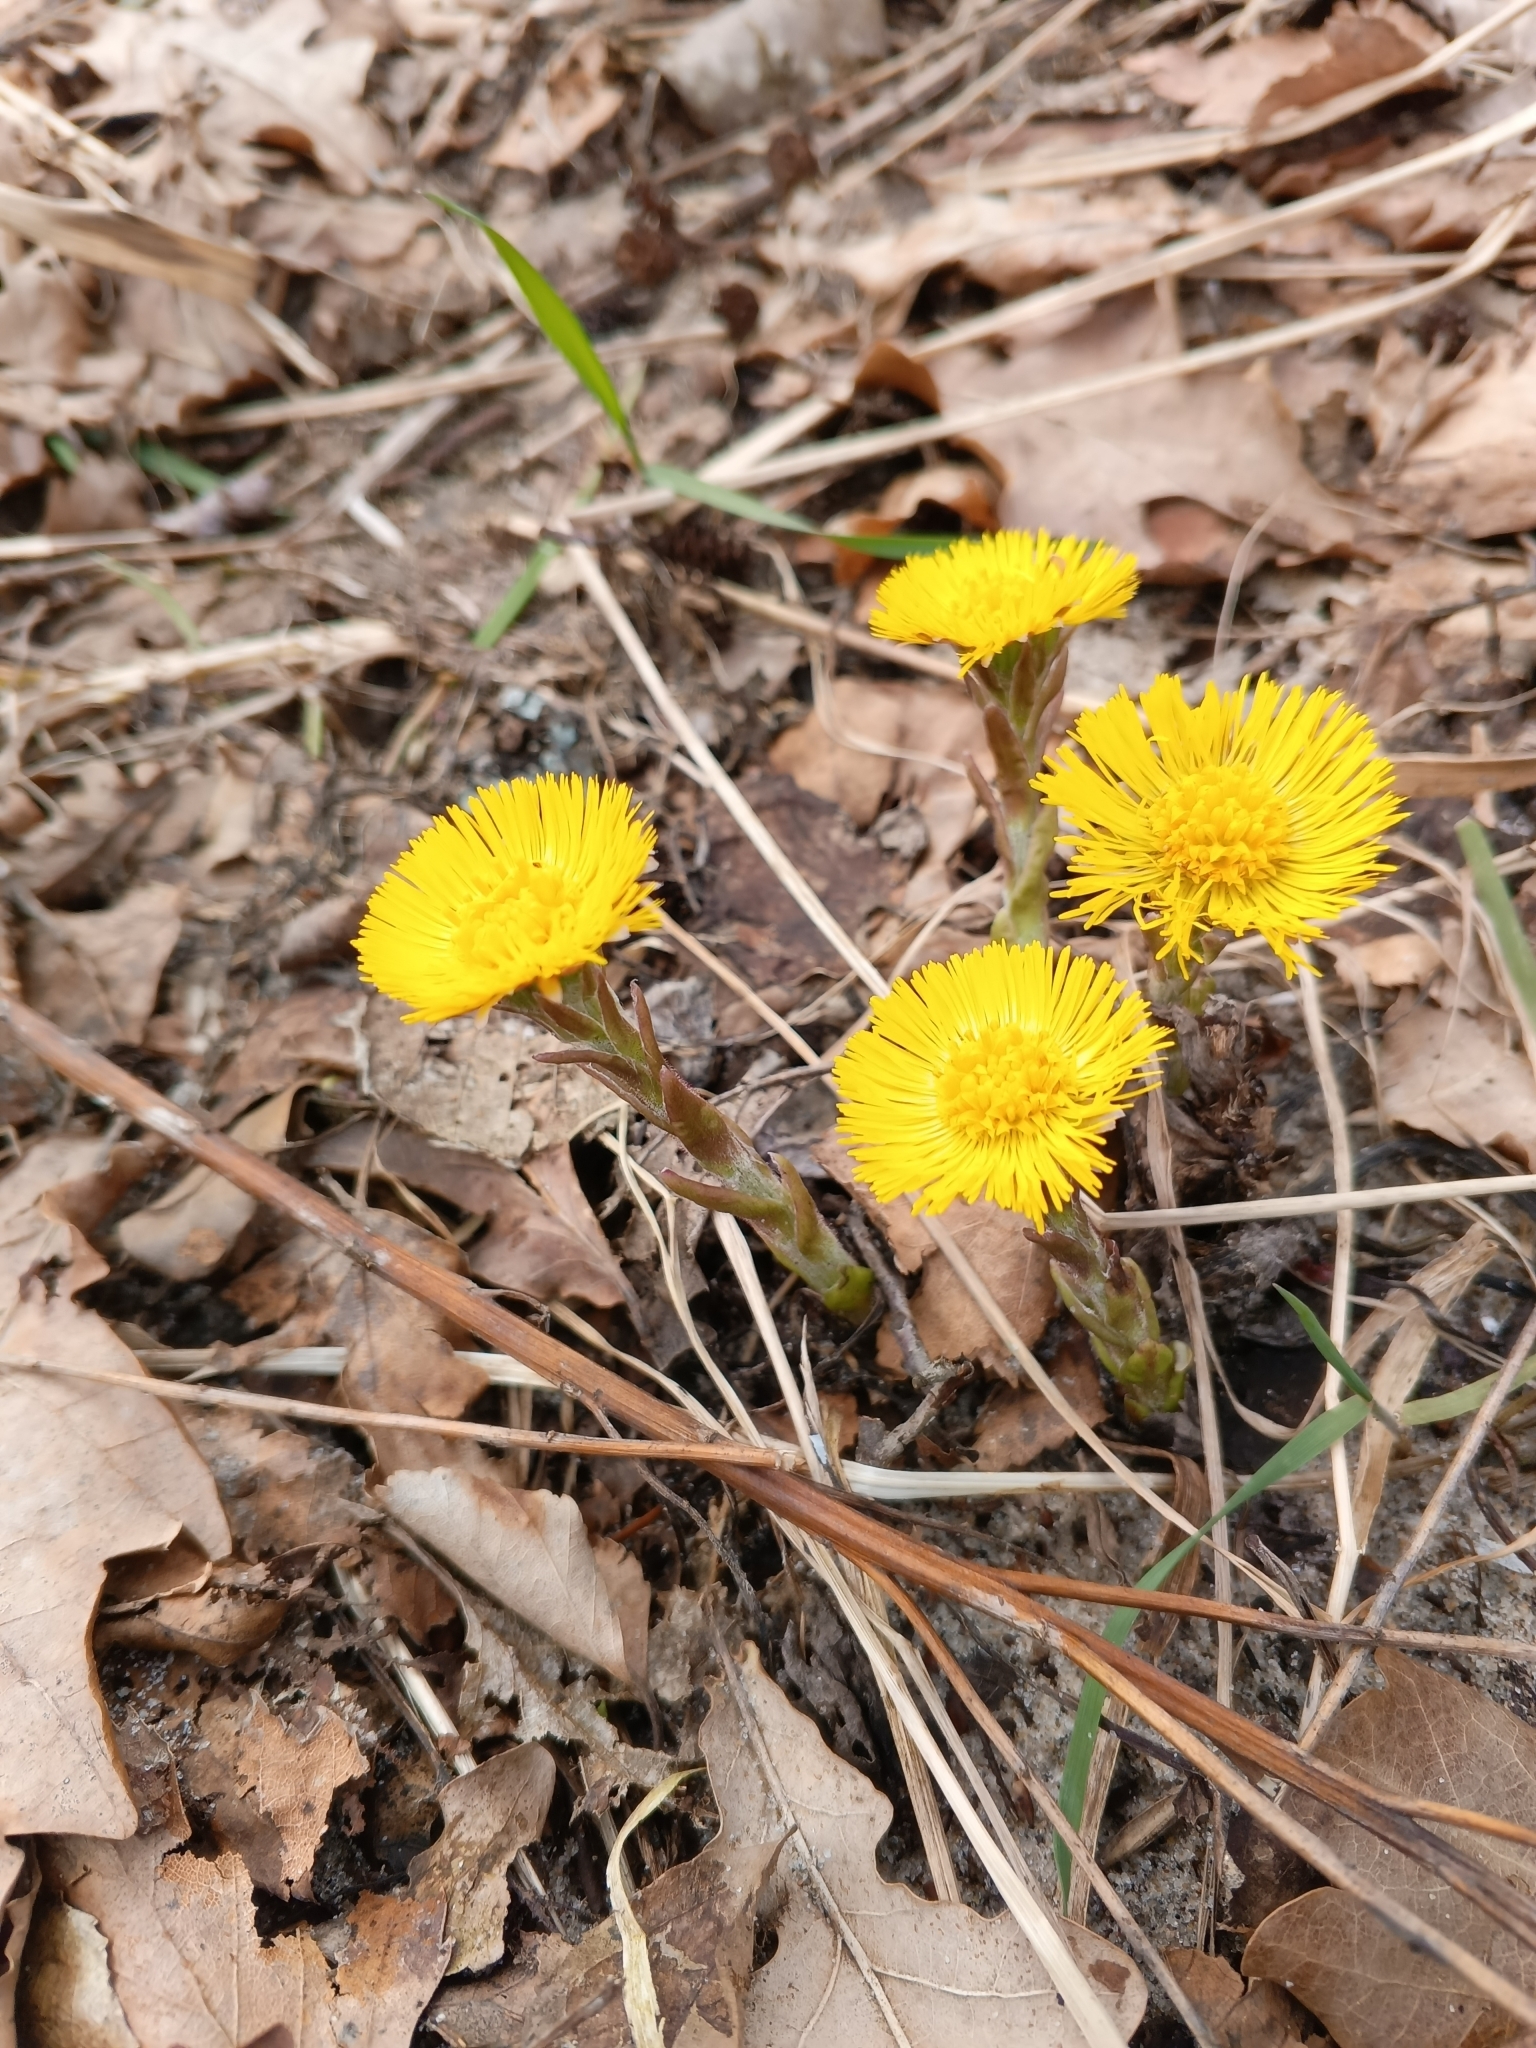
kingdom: Plantae
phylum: Tracheophyta
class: Magnoliopsida
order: Asterales
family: Asteraceae
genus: Tussilago
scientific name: Tussilago farfara
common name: Coltsfoot
